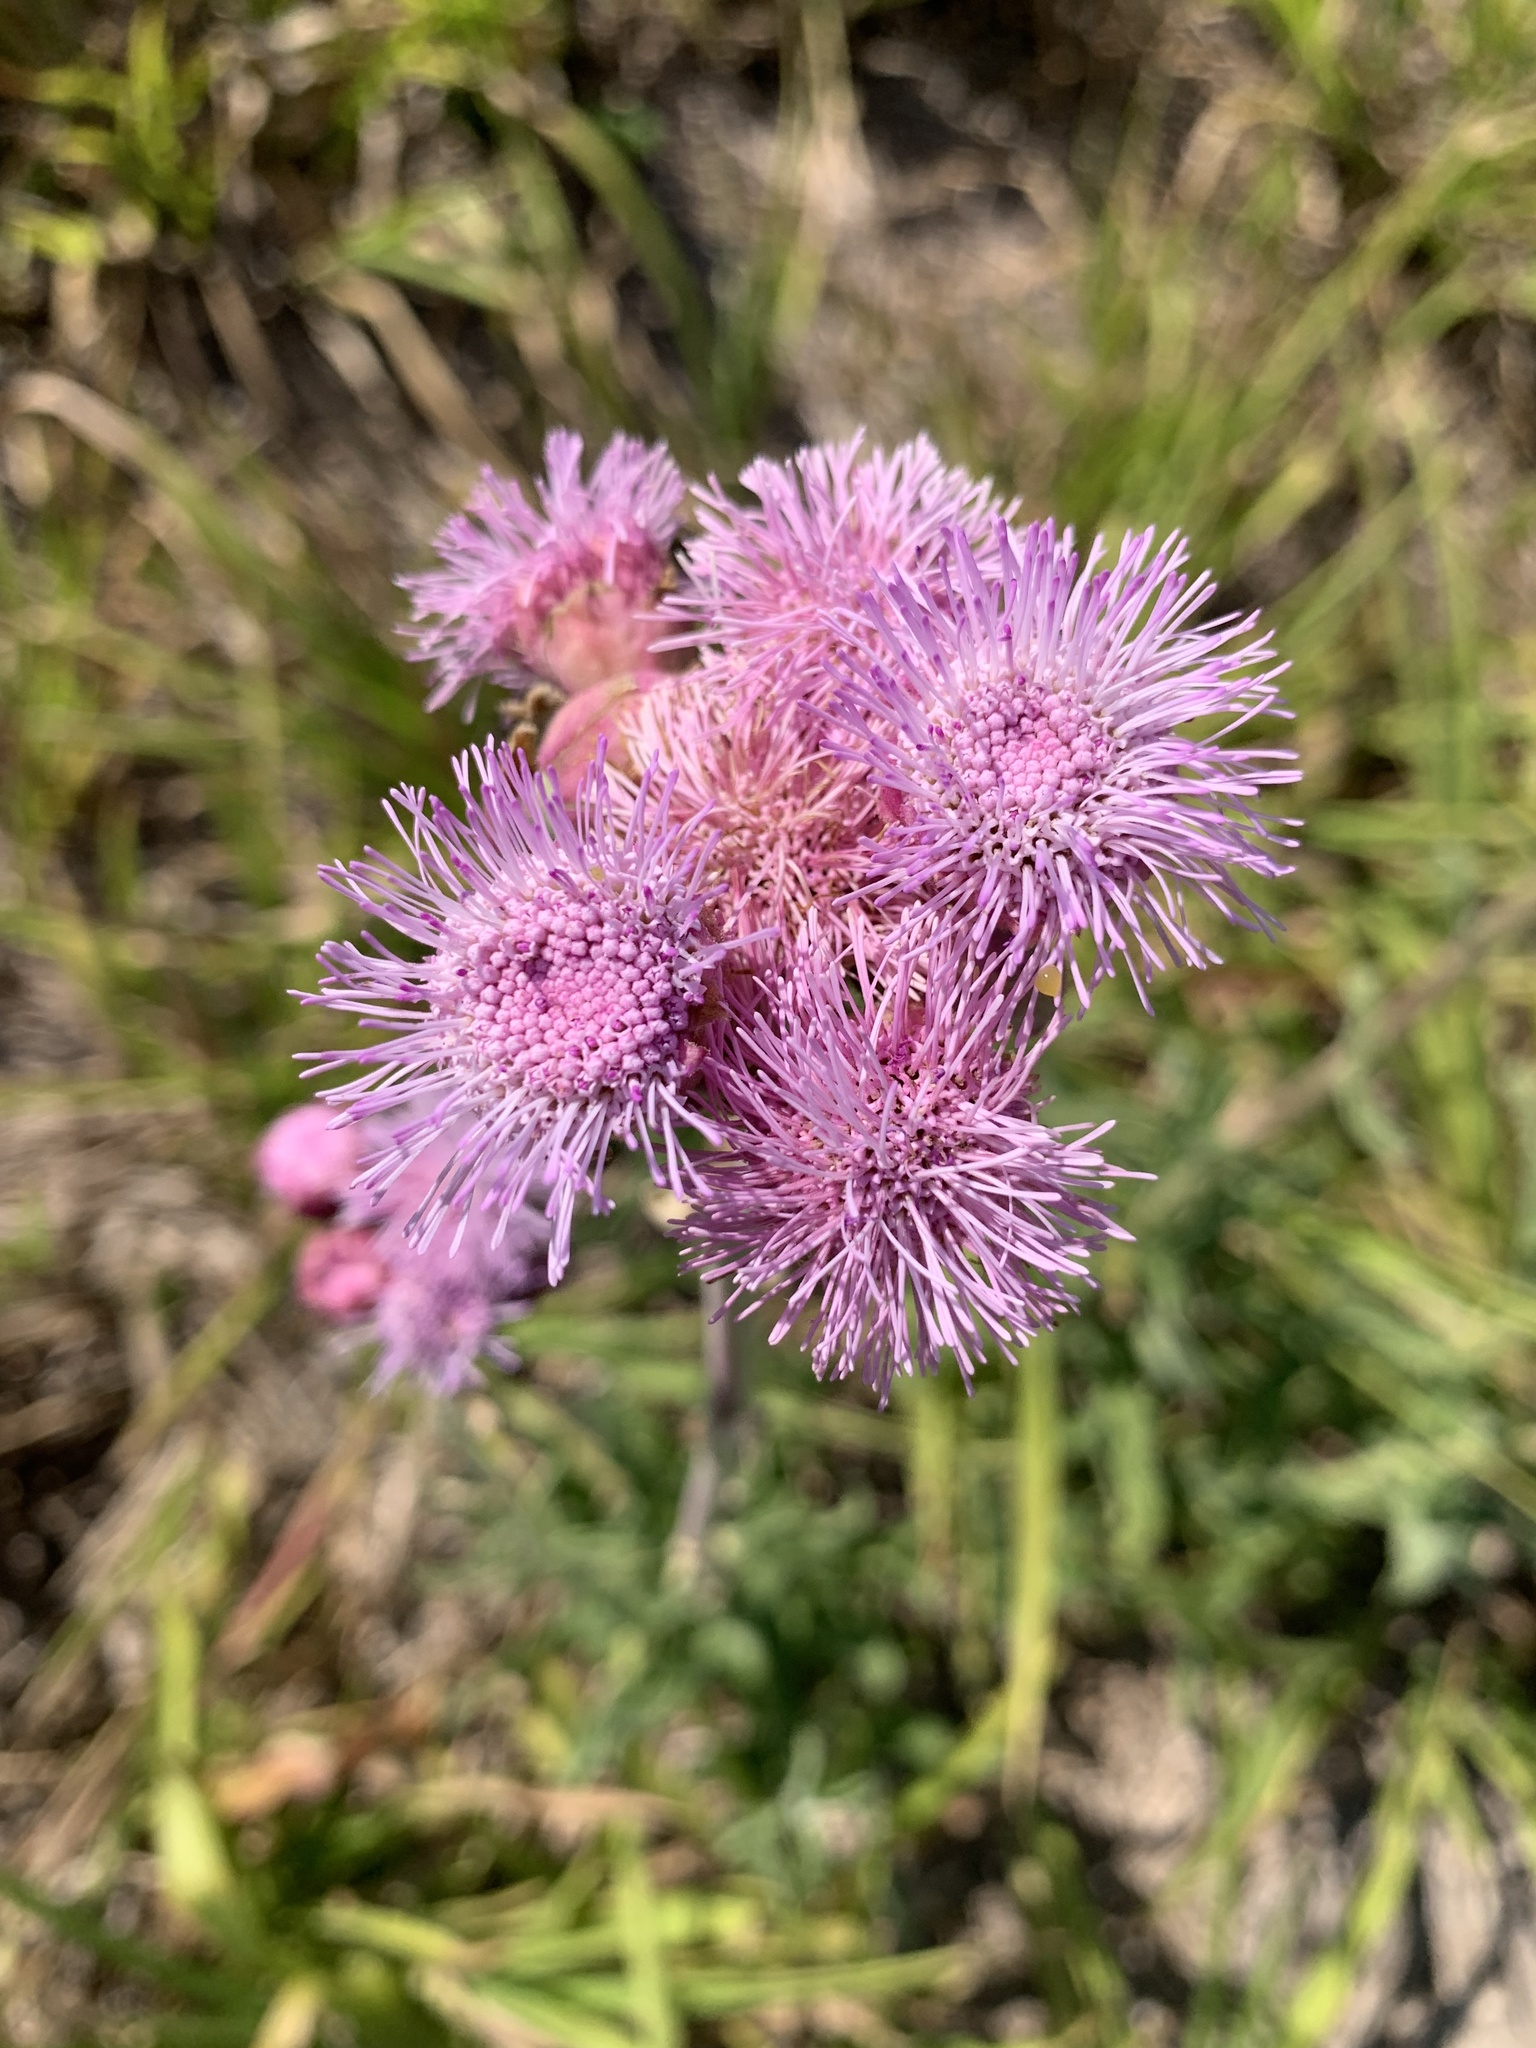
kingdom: Plantae
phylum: Tracheophyta
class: Magnoliopsida
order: Asterales
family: Asteraceae
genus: Campuloclinium
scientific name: Campuloclinium macrocephalum
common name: Pompomweed
